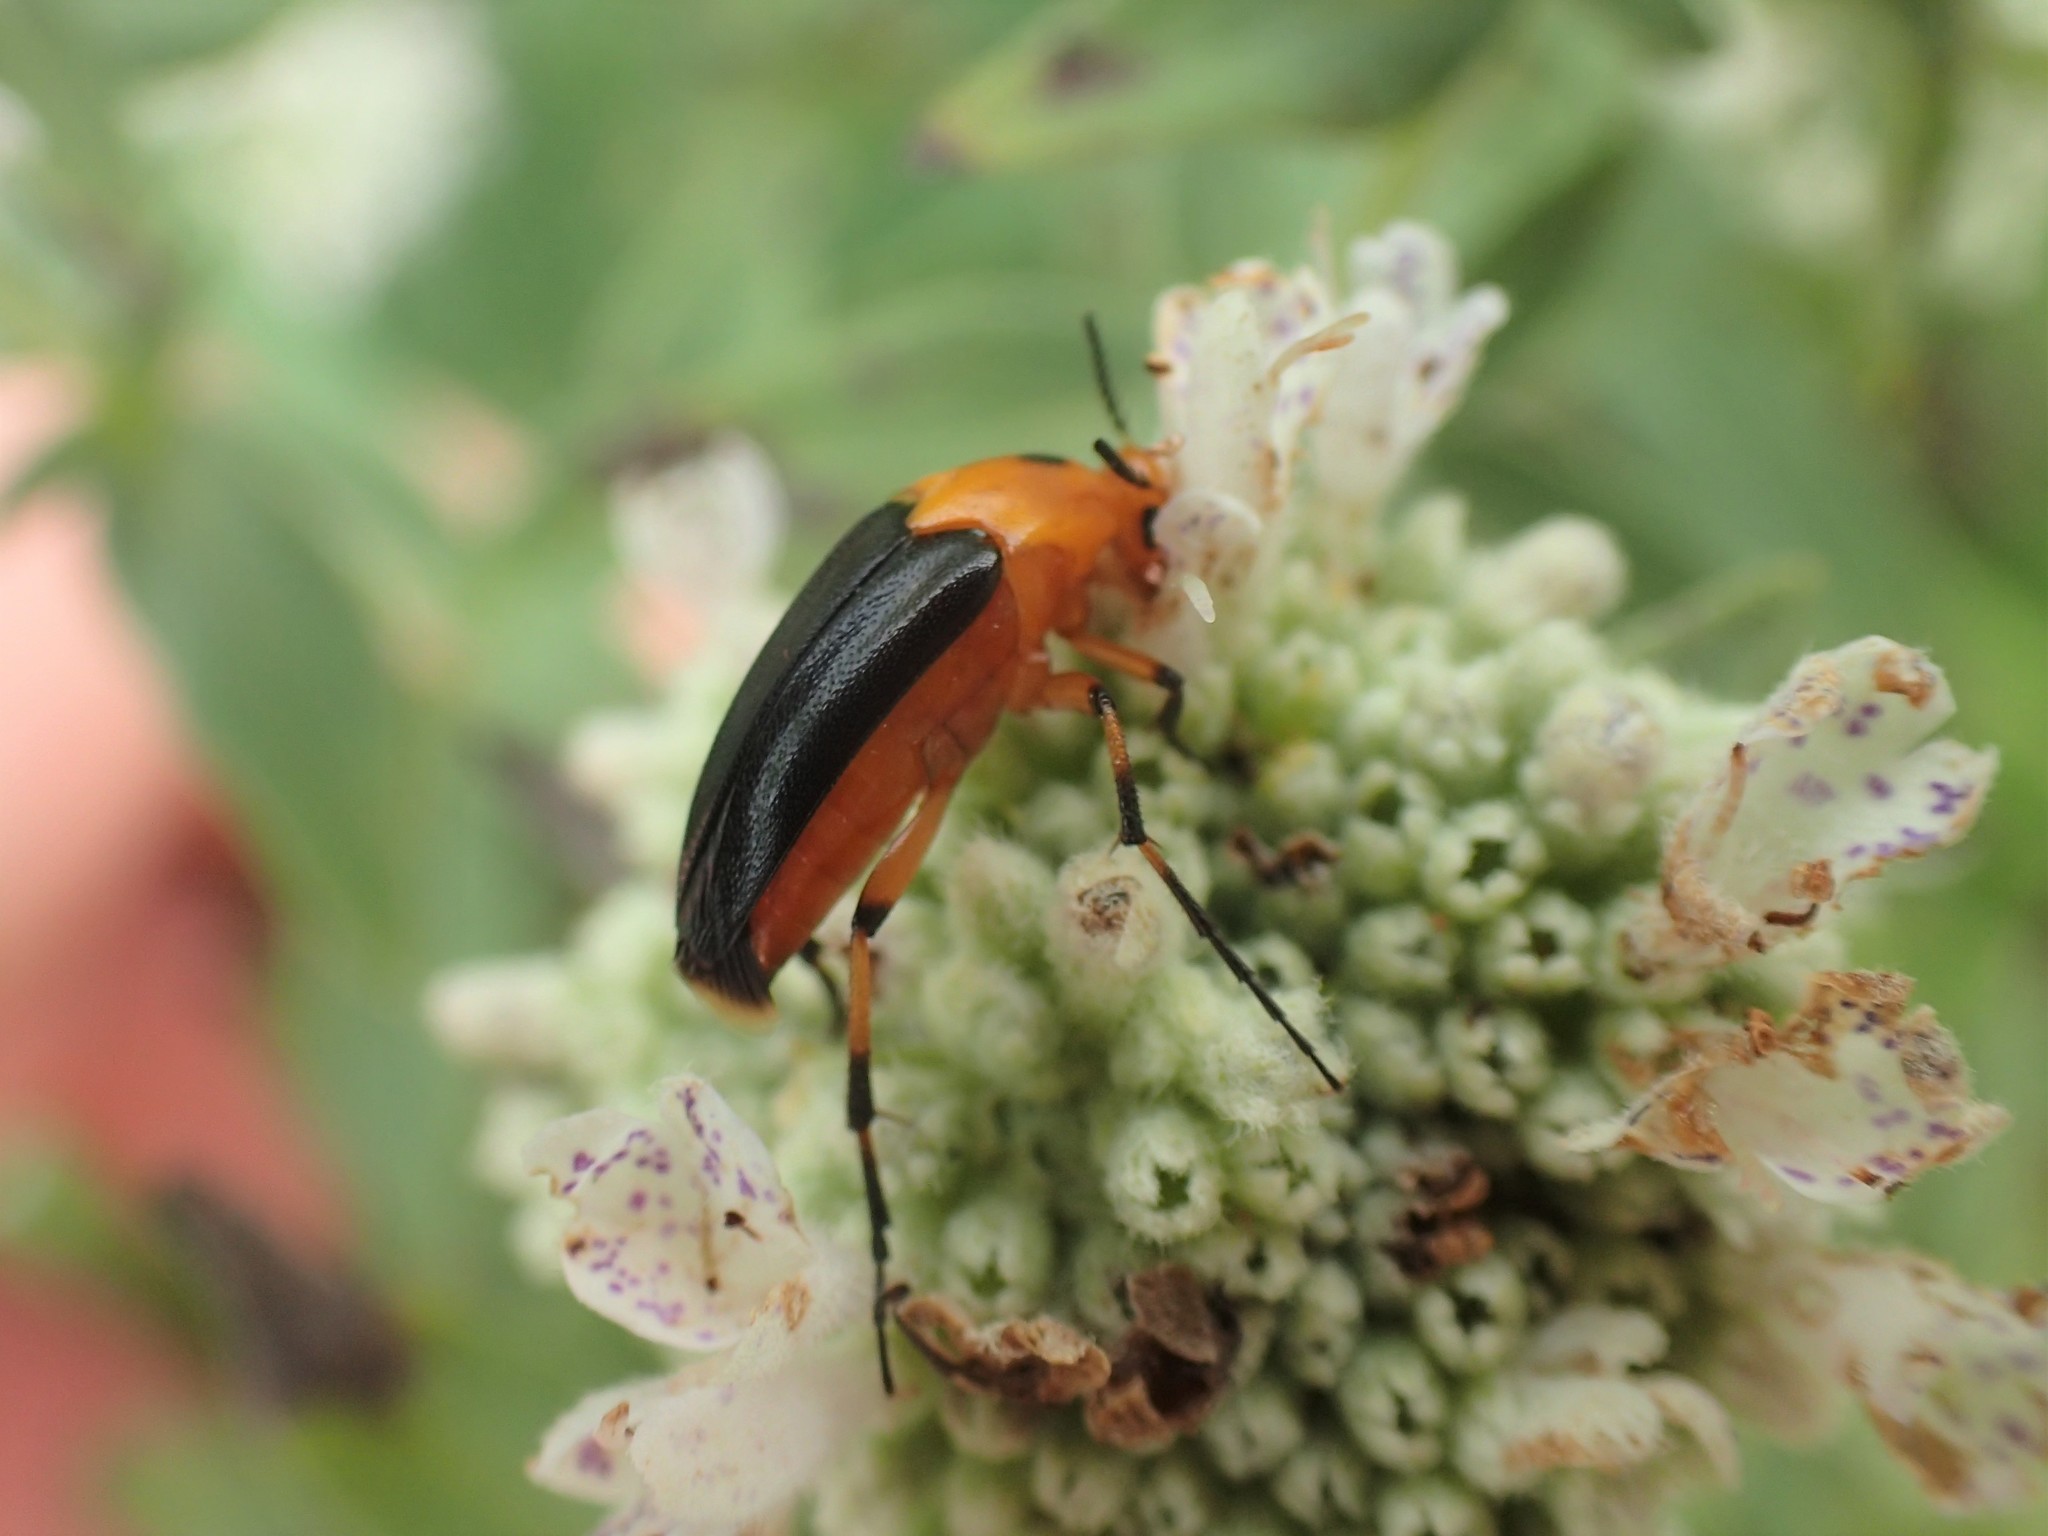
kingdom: Animalia
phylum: Arthropoda
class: Insecta
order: Coleoptera
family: Ripiphoridae
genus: Macrosiagon
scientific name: Macrosiagon limbatum
